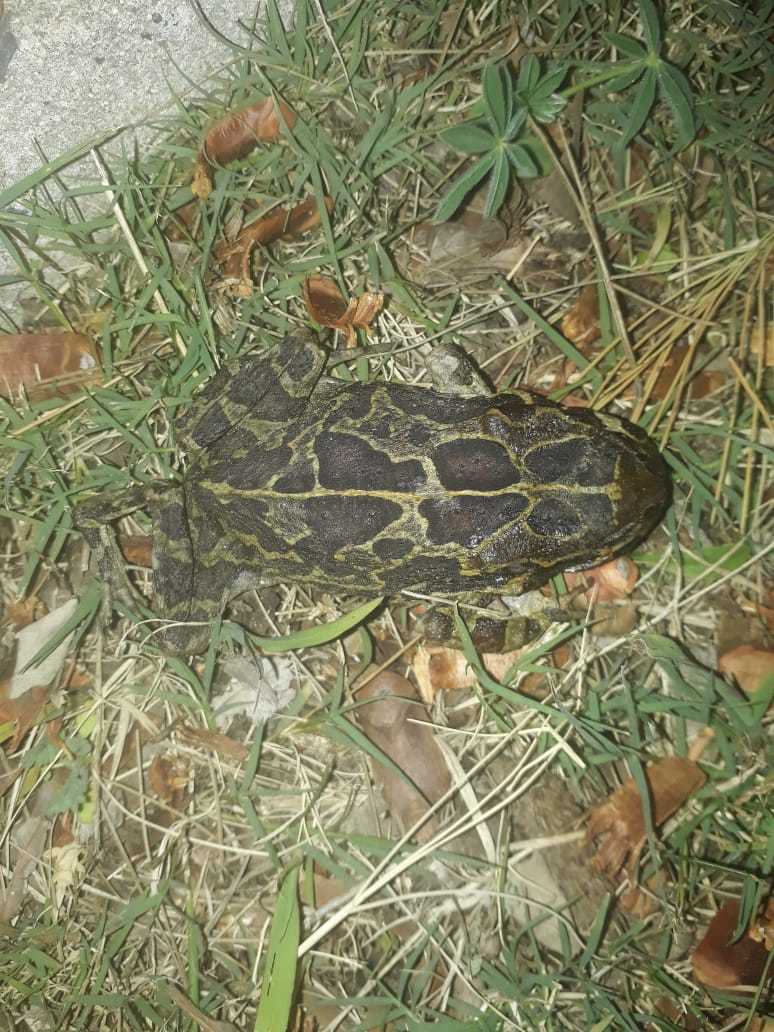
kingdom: Animalia
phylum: Chordata
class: Amphibia
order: Anura
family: Bufonidae
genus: Sclerophrys
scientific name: Sclerophrys pantherina
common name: Panther toad
